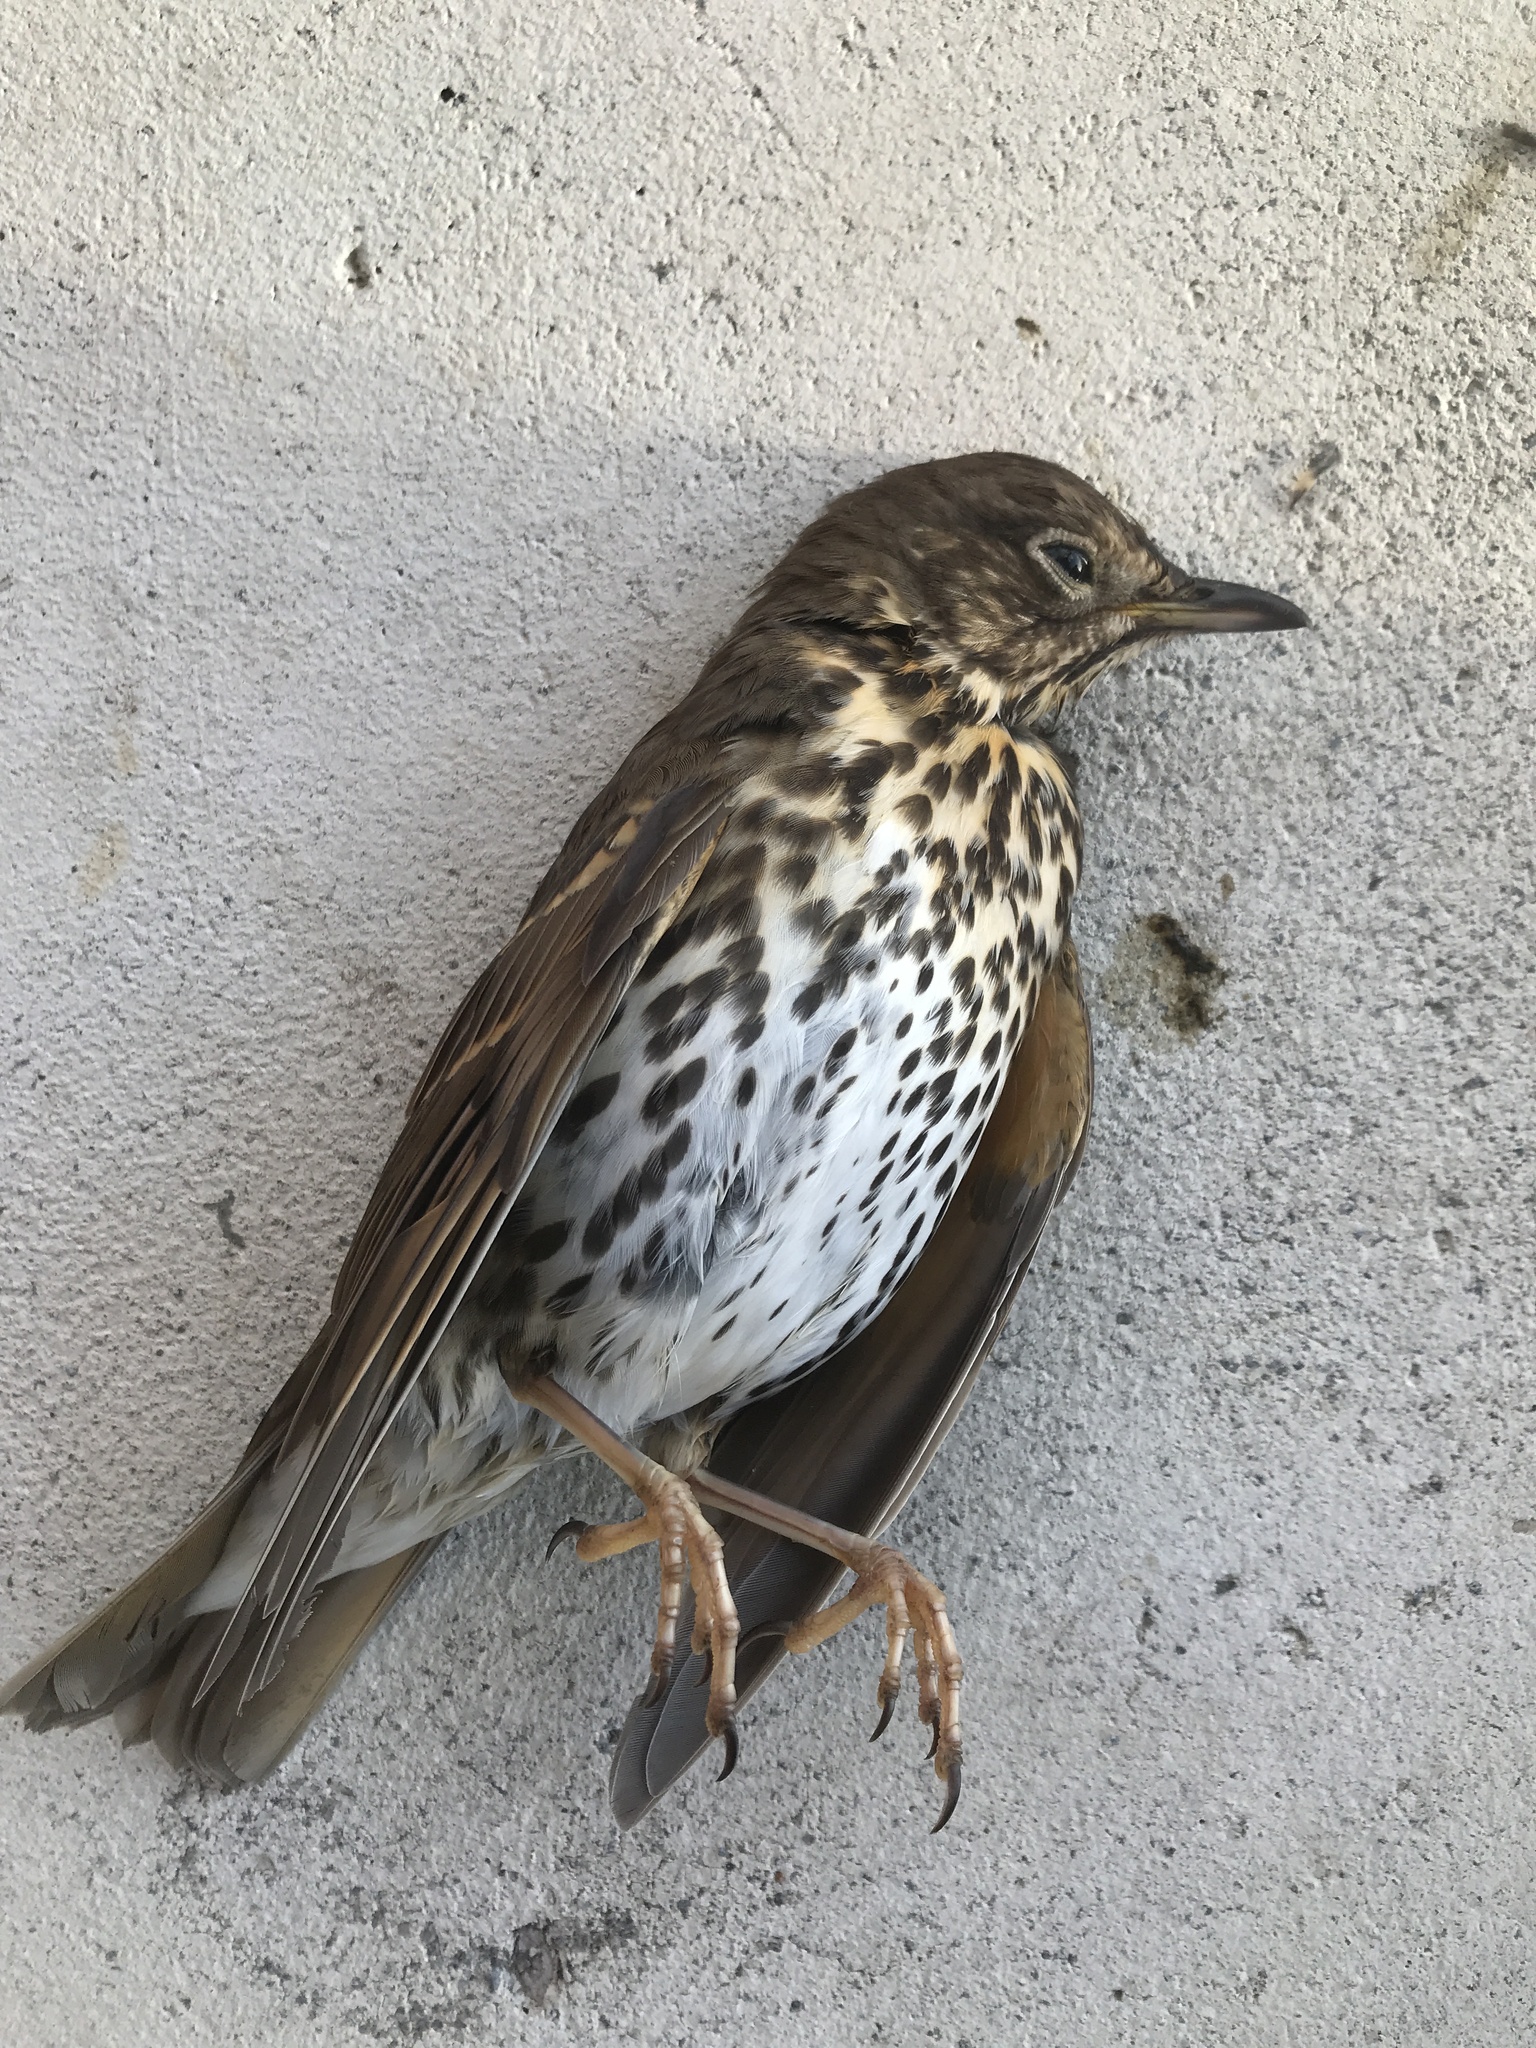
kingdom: Animalia
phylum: Chordata
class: Aves
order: Passeriformes
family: Turdidae
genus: Turdus
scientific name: Turdus philomelos
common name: Song thrush
